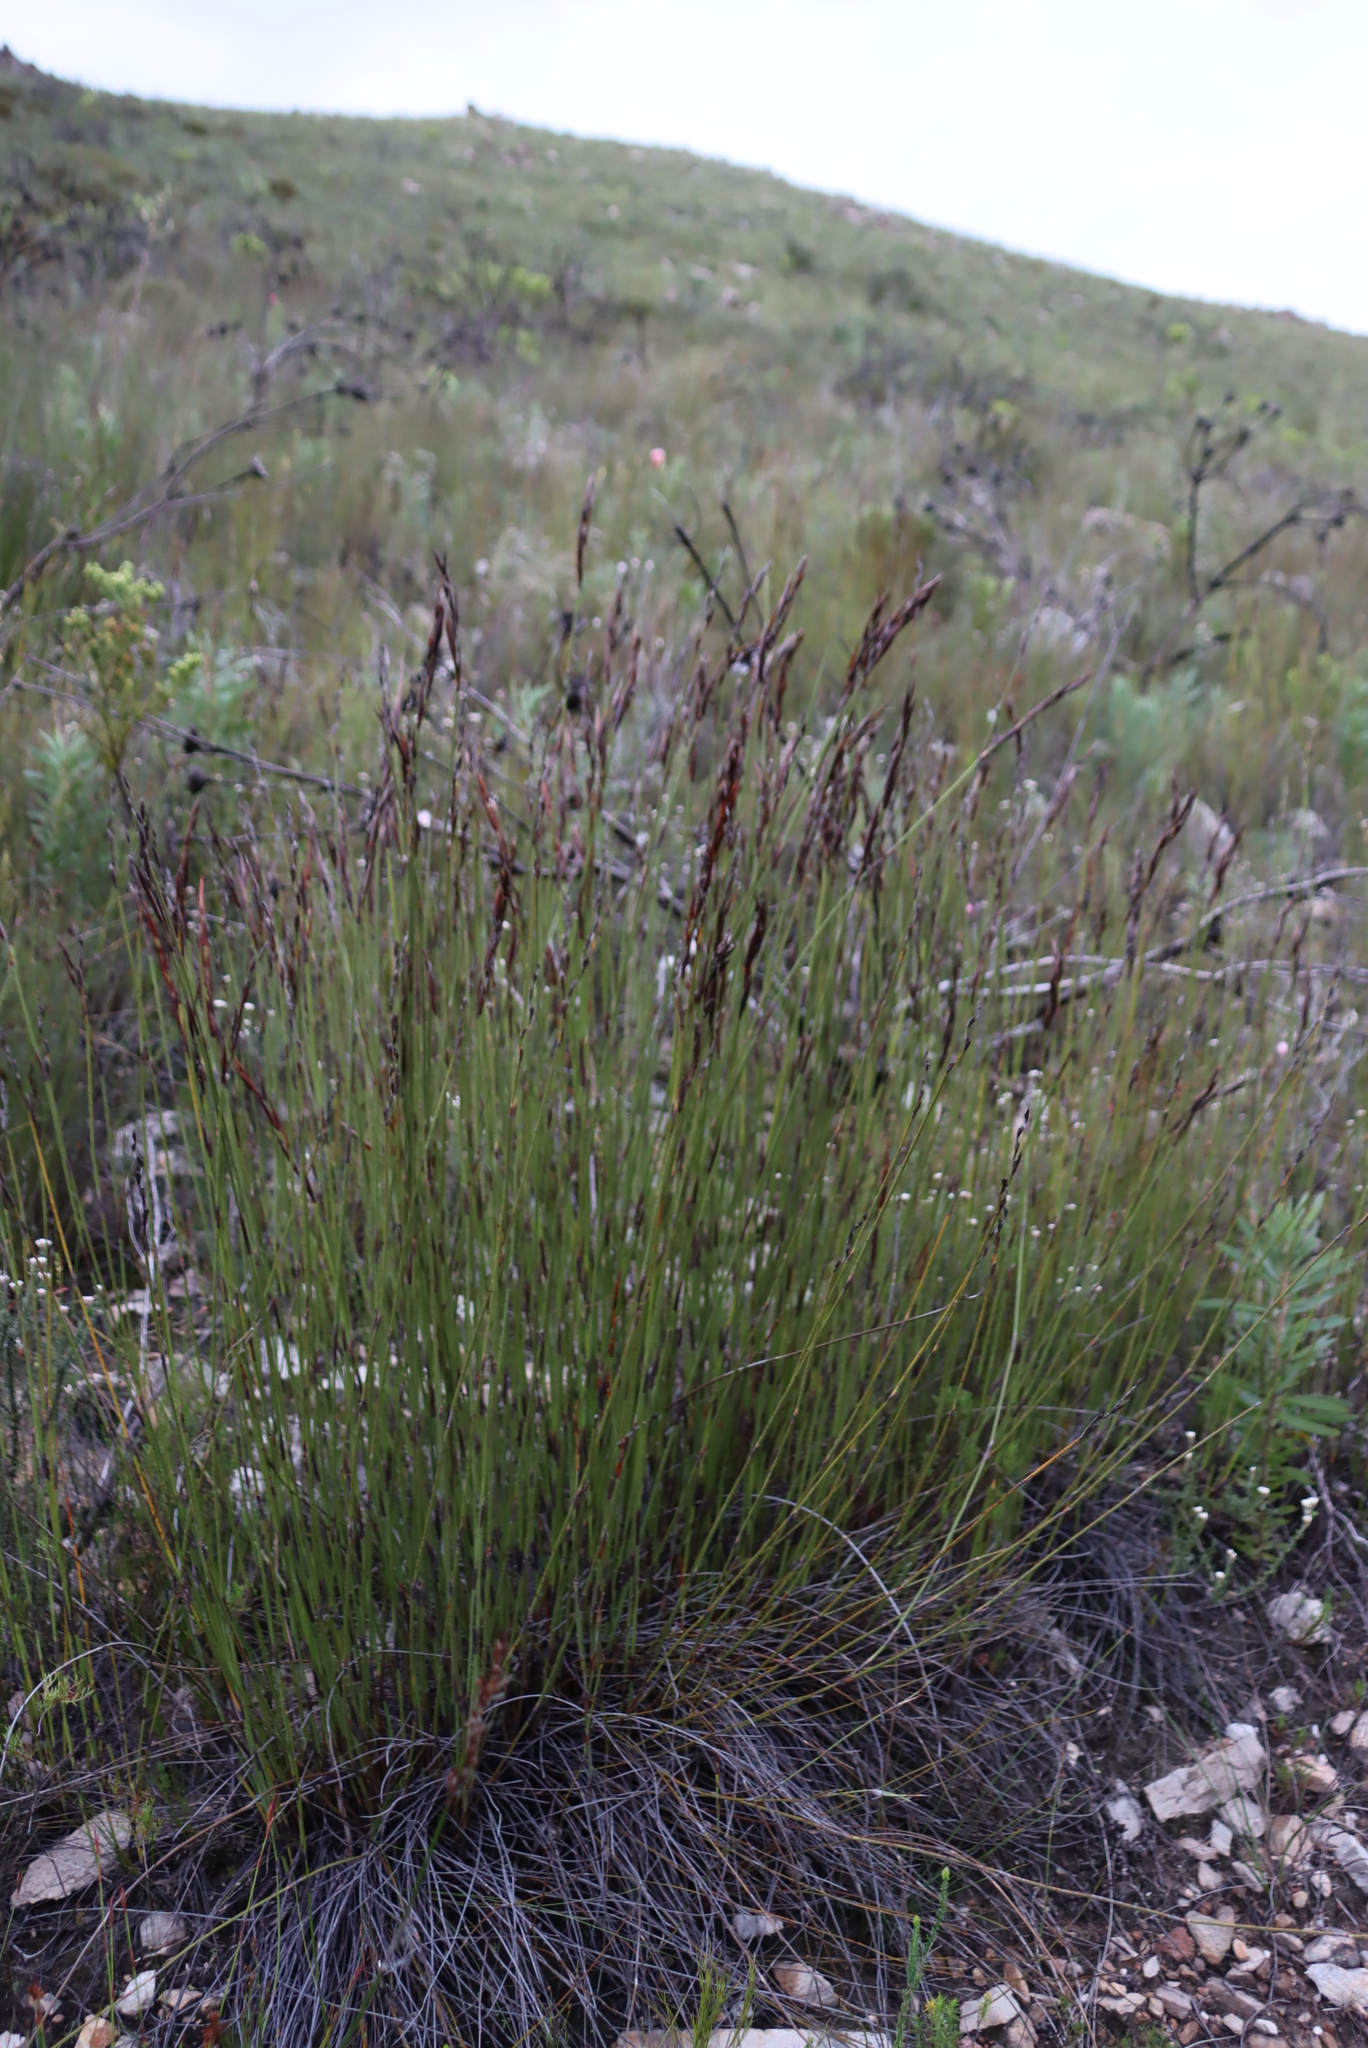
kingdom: Plantae
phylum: Tracheophyta
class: Liliopsida
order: Poales
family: Restionaceae
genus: Cannomois
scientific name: Cannomois scirpoides
